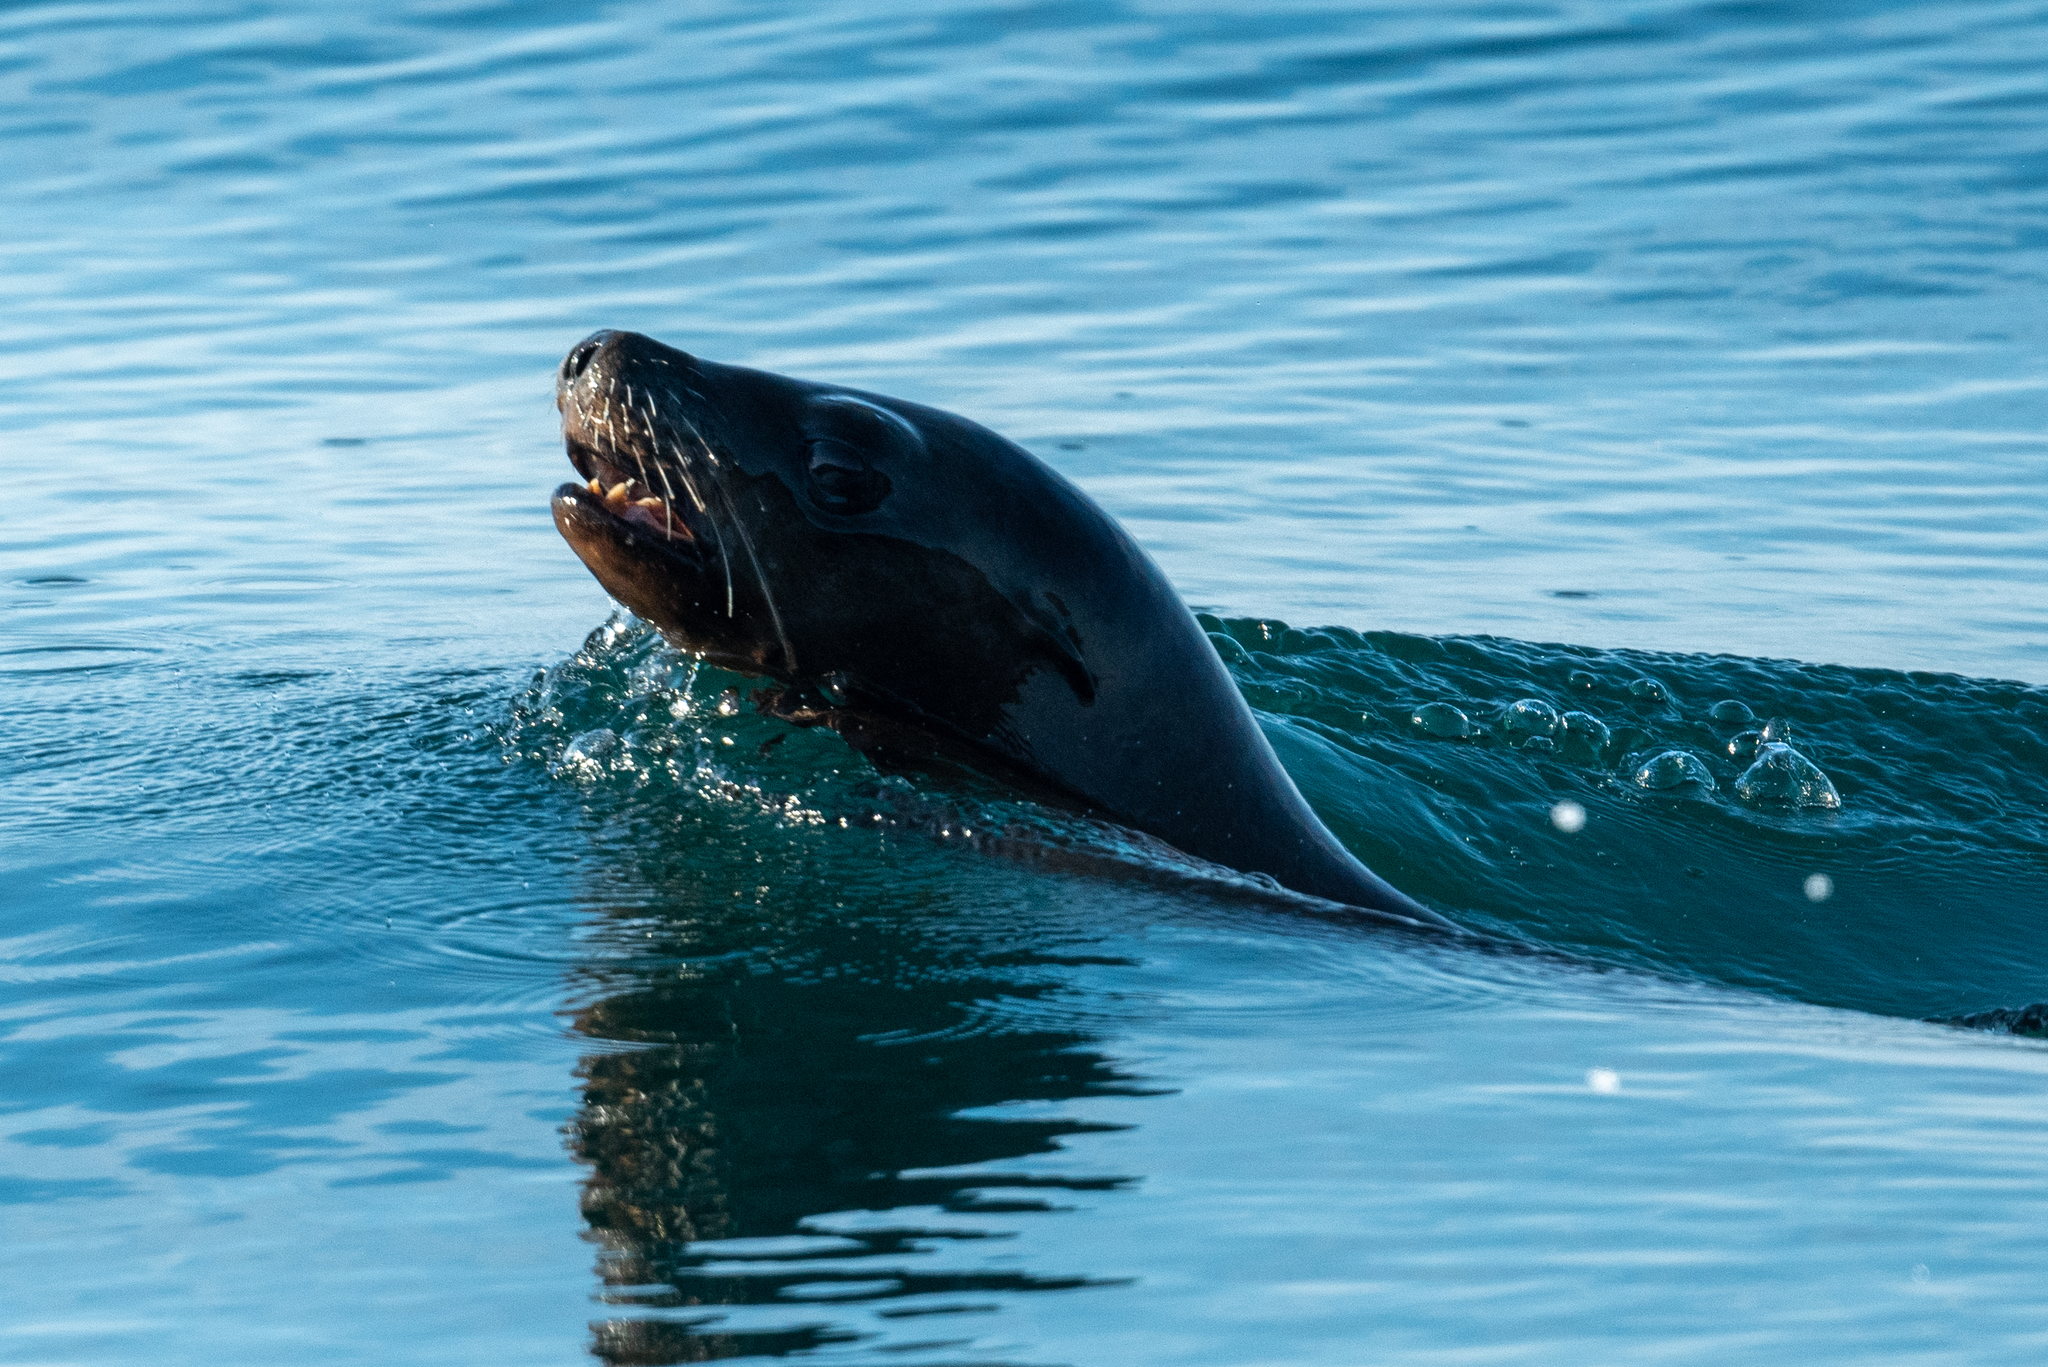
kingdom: Animalia
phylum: Chordata
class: Mammalia
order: Carnivora
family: Otariidae
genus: Zalophus
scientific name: Zalophus californianus
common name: California sea lion
